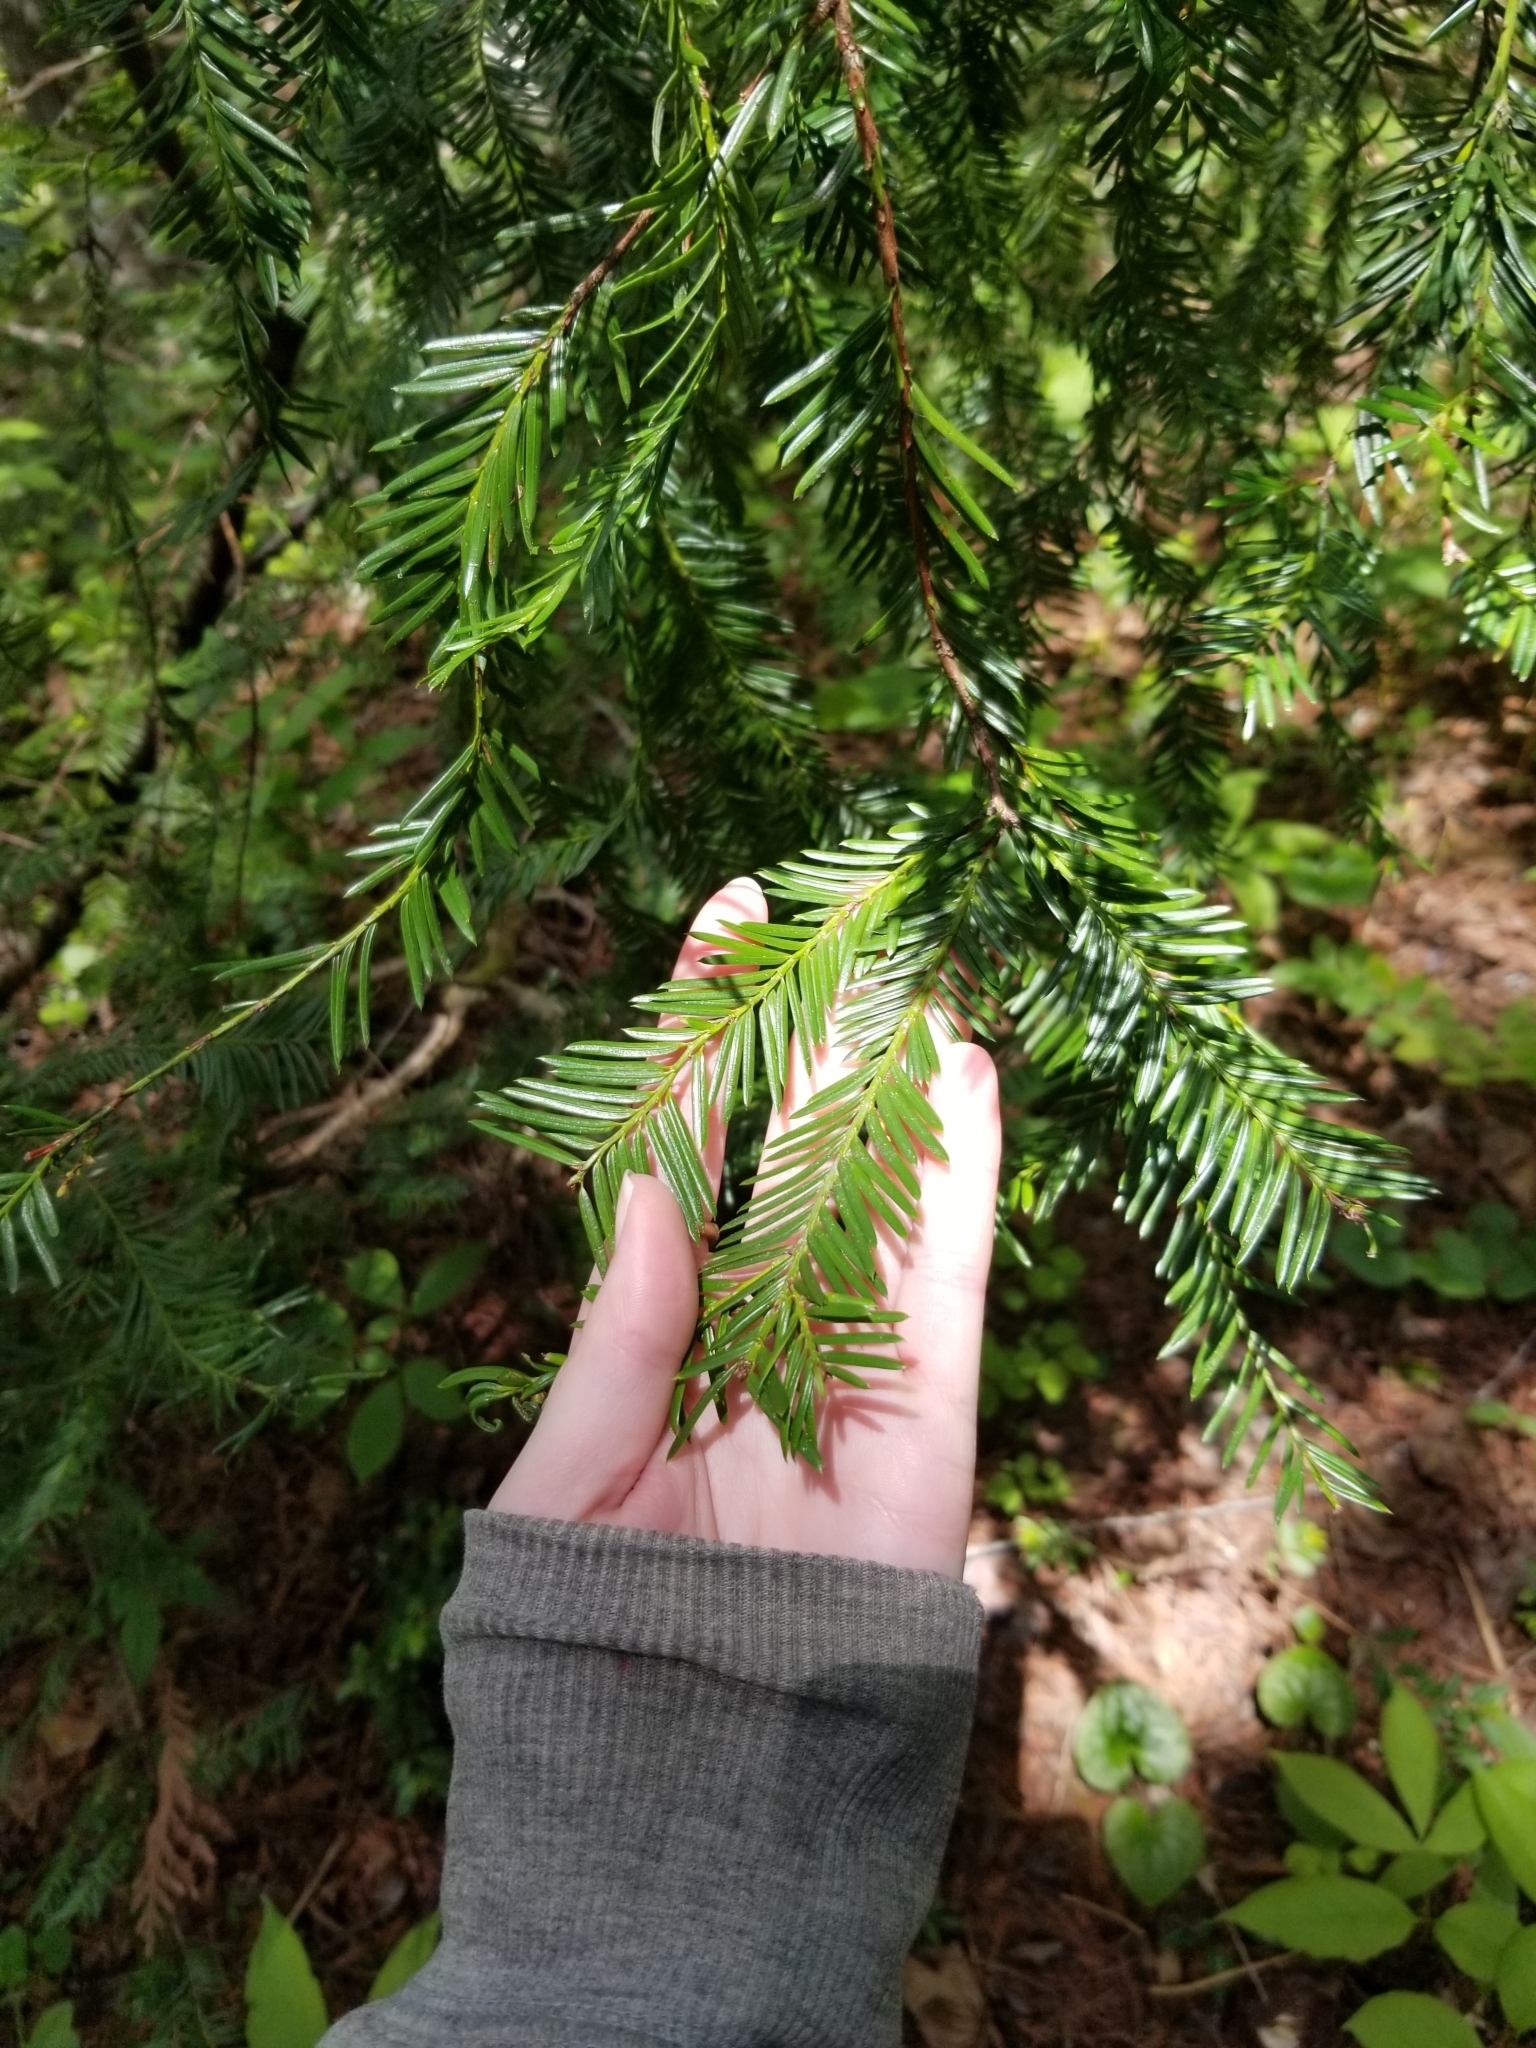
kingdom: Plantae
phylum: Tracheophyta
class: Pinopsida
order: Pinales
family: Taxaceae
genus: Taxus
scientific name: Taxus brevifolia
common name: Pacific yew
